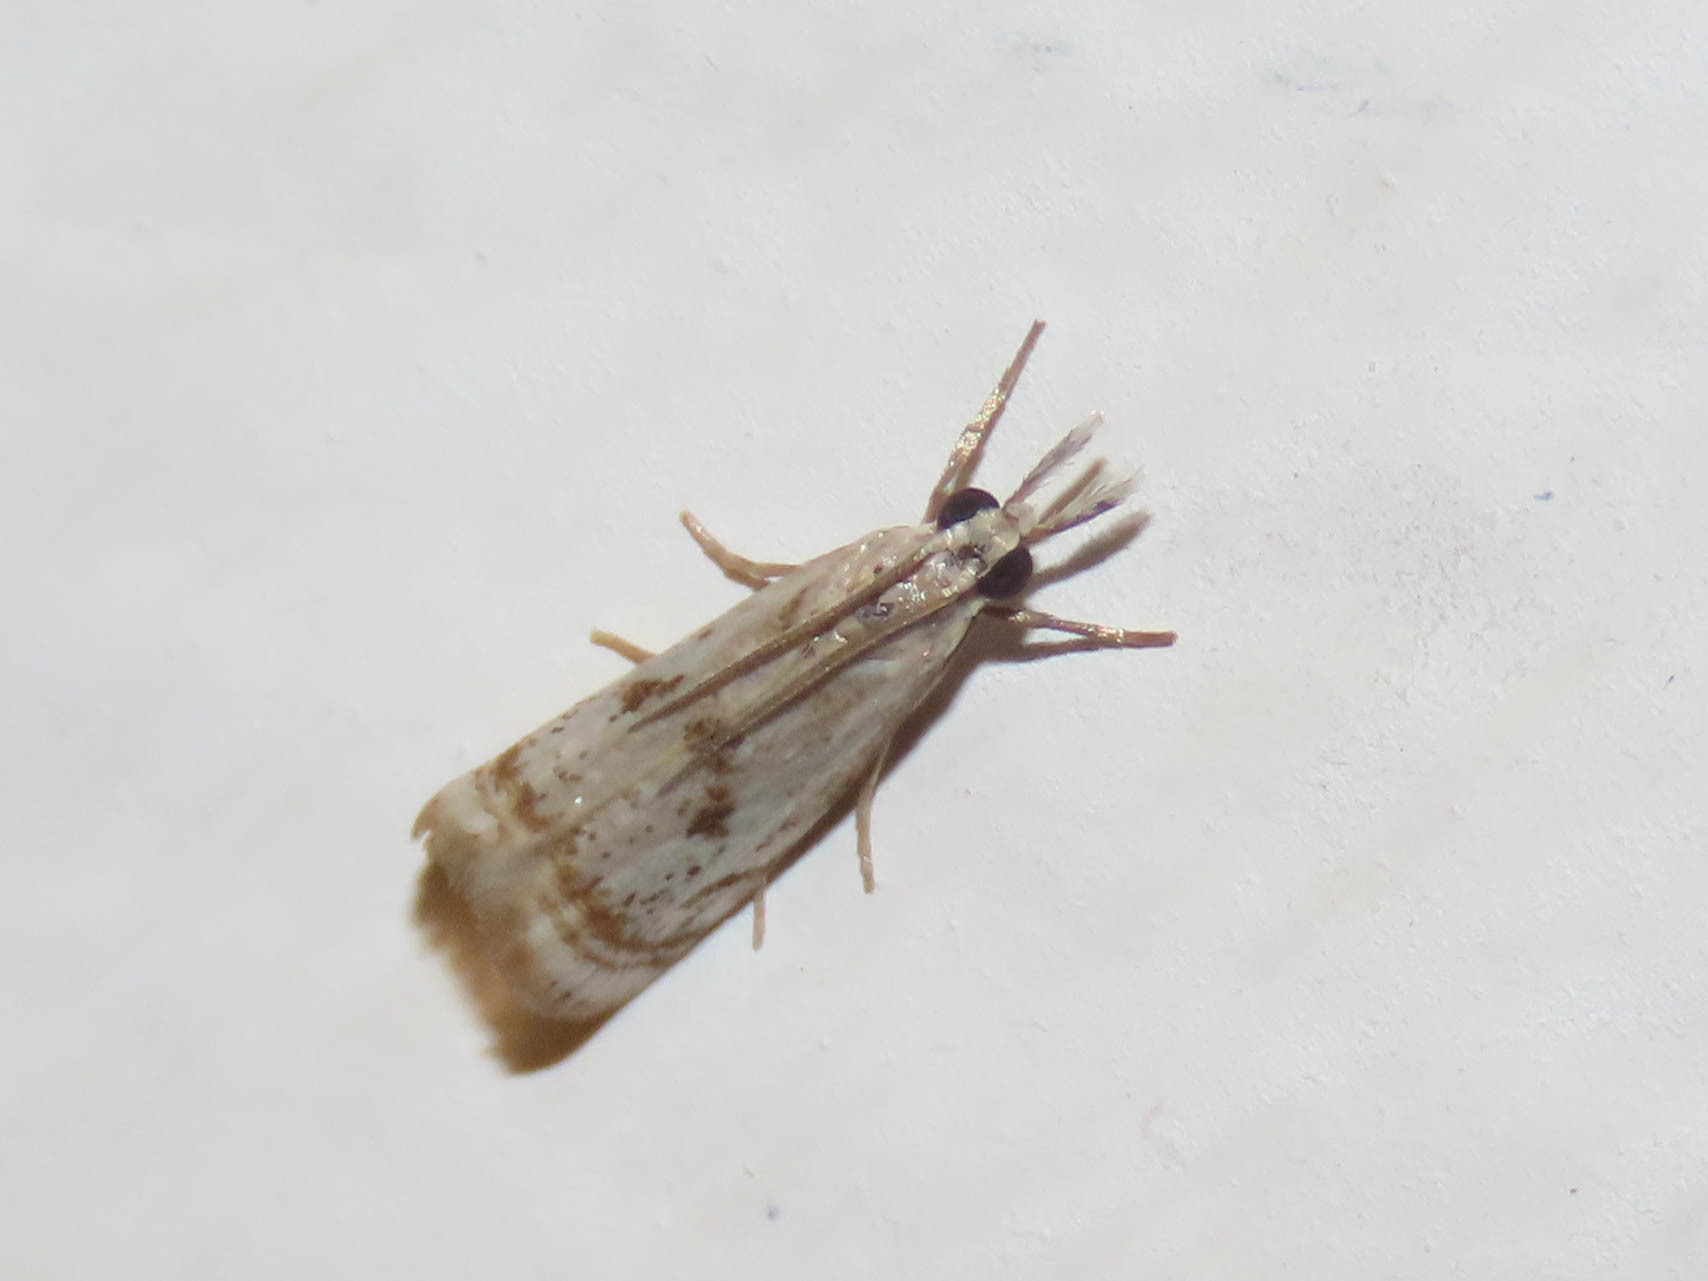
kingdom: Animalia
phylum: Arthropoda
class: Insecta
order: Lepidoptera
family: Crambidae
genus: Microcrambus
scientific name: Microcrambus elegans
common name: Elegant grass-veneer
